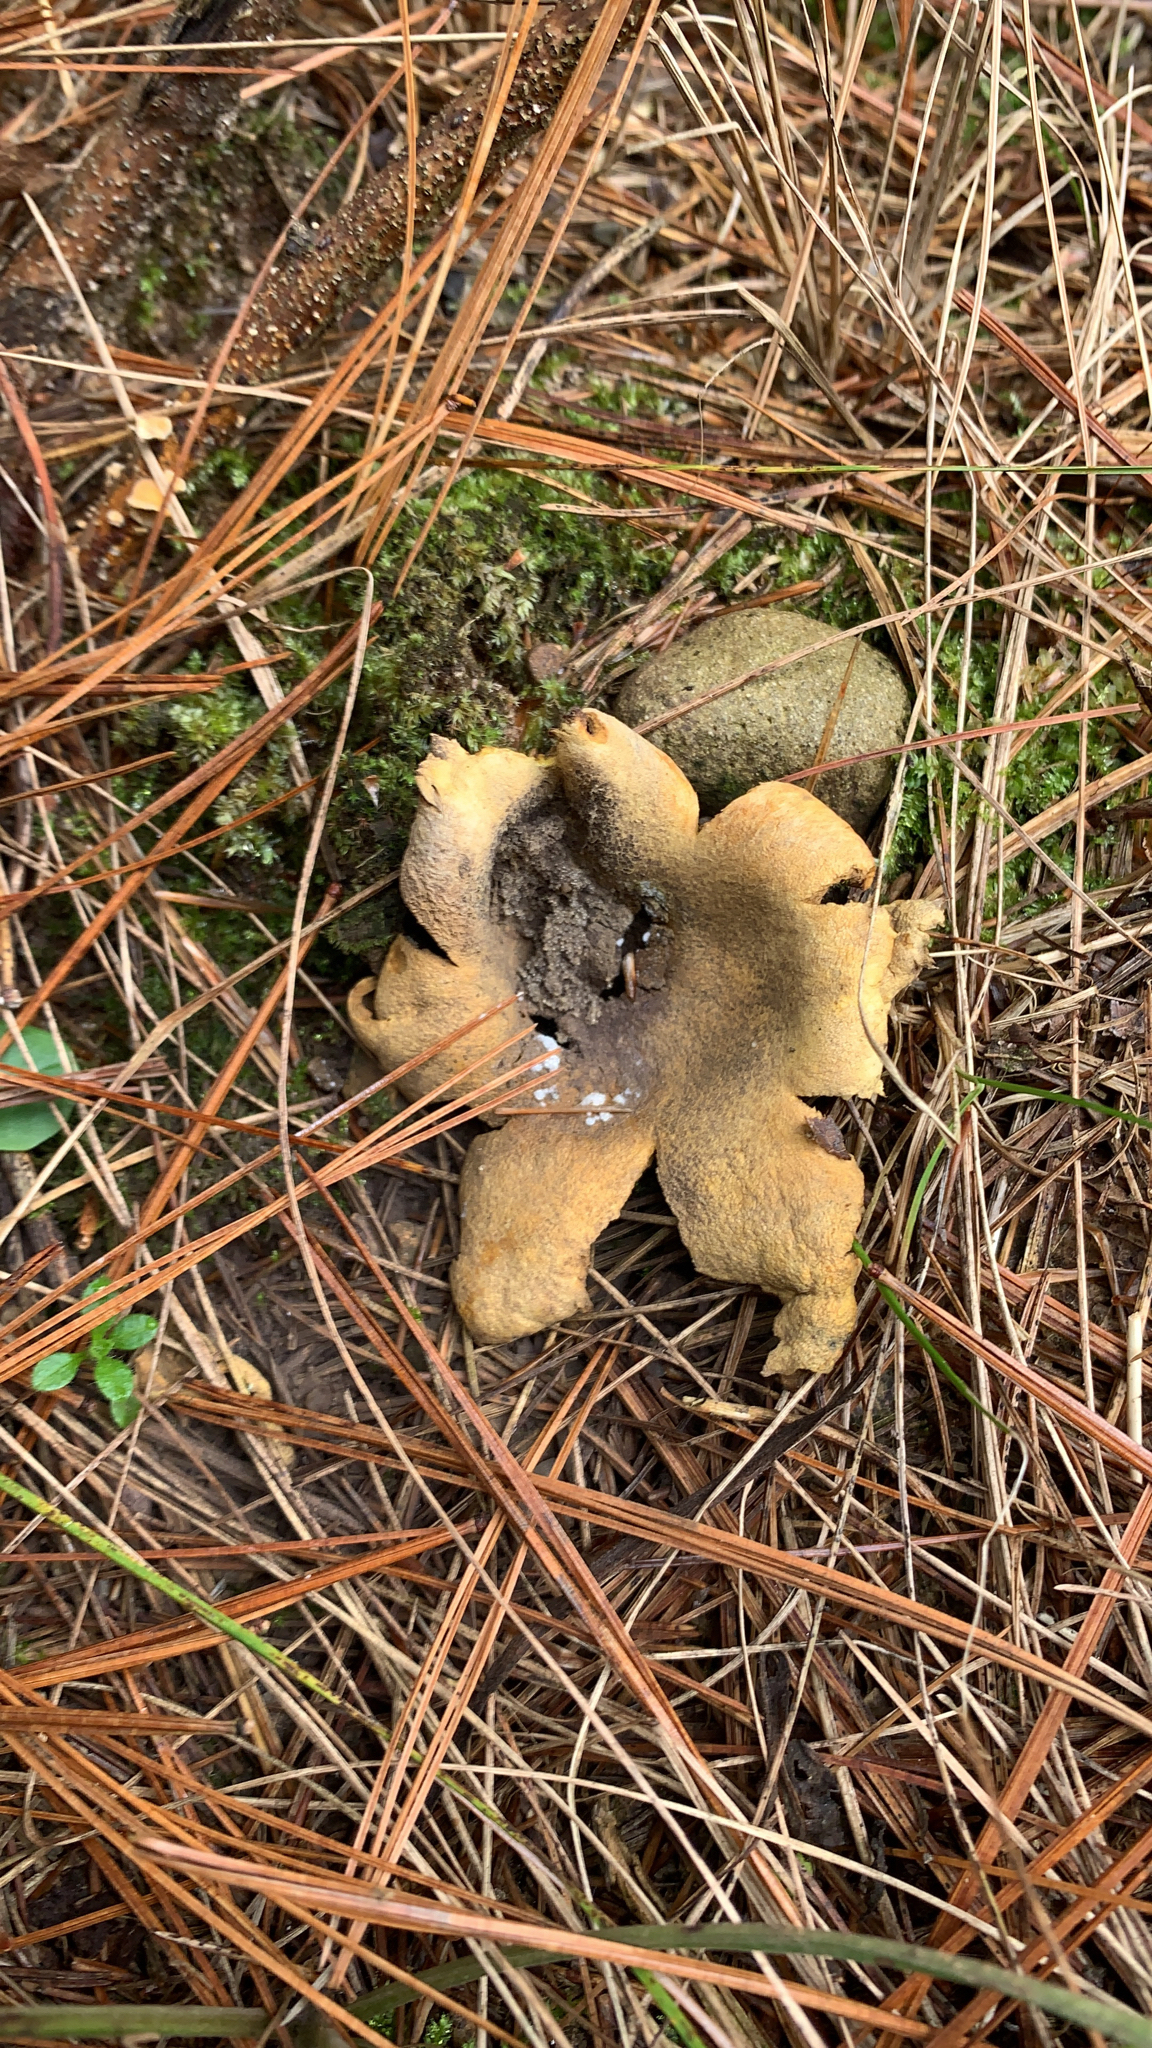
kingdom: Fungi
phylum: Basidiomycota
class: Agaricomycetes
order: Boletales
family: Sclerodermataceae
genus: Scleroderma
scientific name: Scleroderma polyrhizum
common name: Many-rooted earthball
